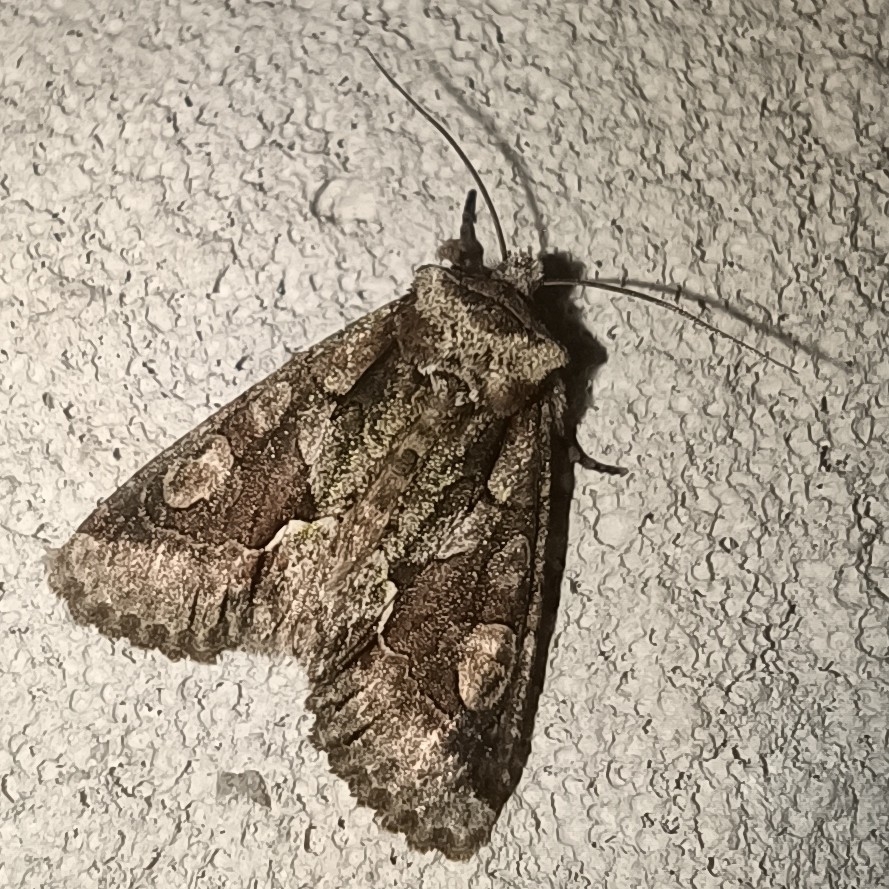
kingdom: Animalia
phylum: Arthropoda
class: Insecta
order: Lepidoptera
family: Noctuidae
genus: Allophyes
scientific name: Allophyes oxyacanthae
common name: Green-brindled crescent
